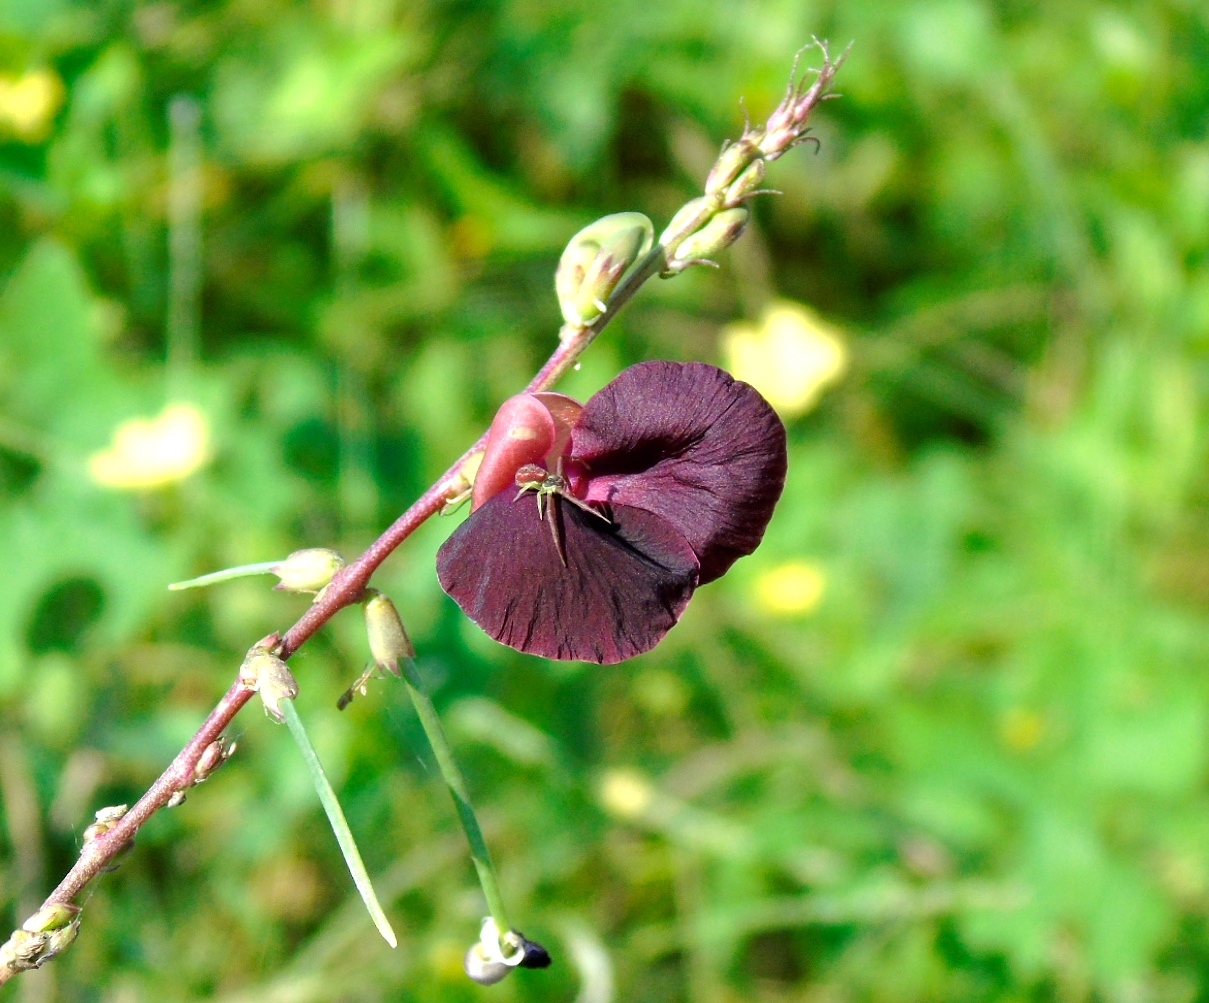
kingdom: Plantae
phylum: Tracheophyta
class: Magnoliopsida
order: Fabales
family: Fabaceae
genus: Macroptilium
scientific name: Macroptilium atropurpureum
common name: Purple bushbean
